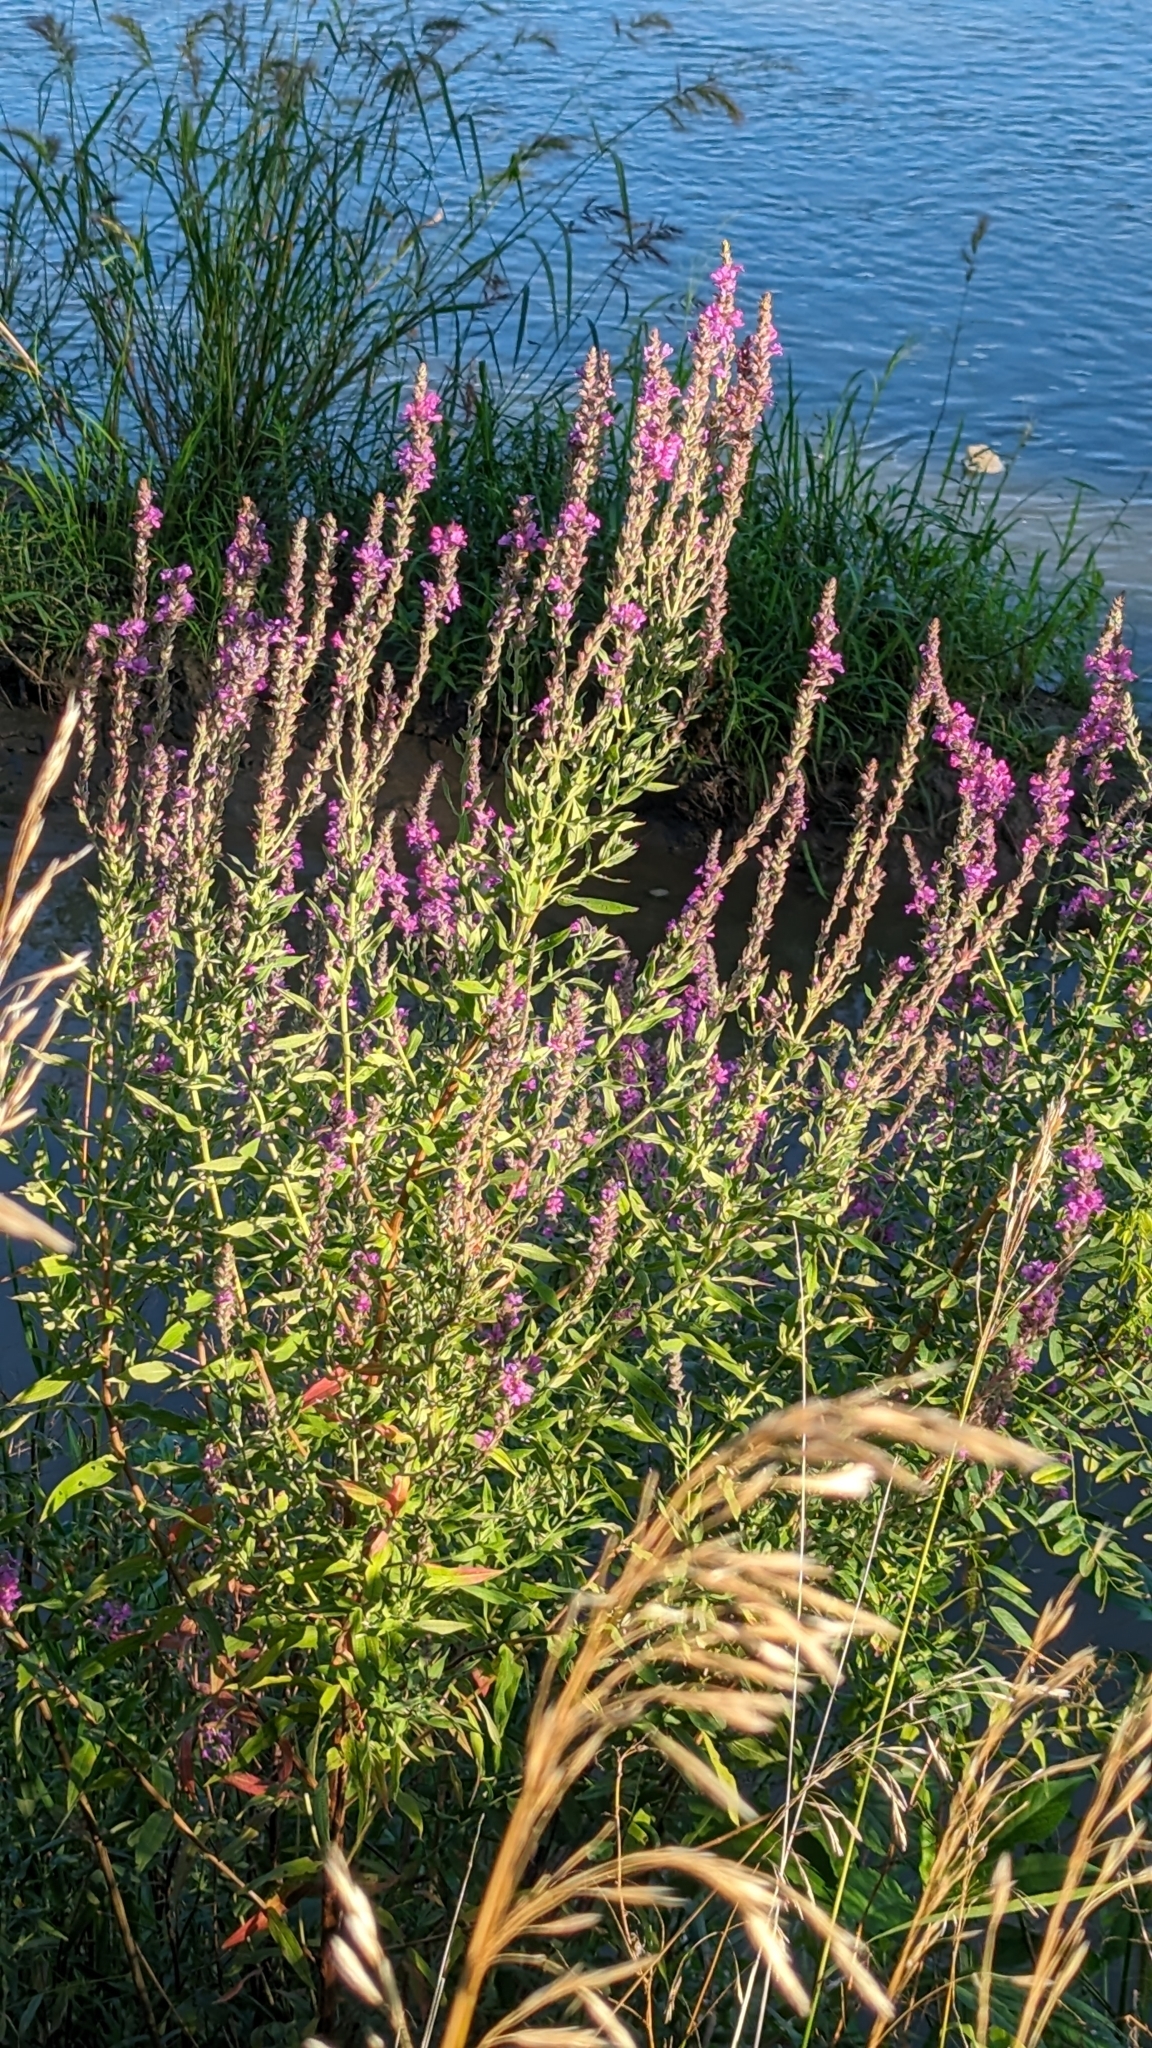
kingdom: Plantae
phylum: Tracheophyta
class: Magnoliopsida
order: Myrtales
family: Lythraceae
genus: Lythrum
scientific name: Lythrum salicaria
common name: Purple loosestrife
